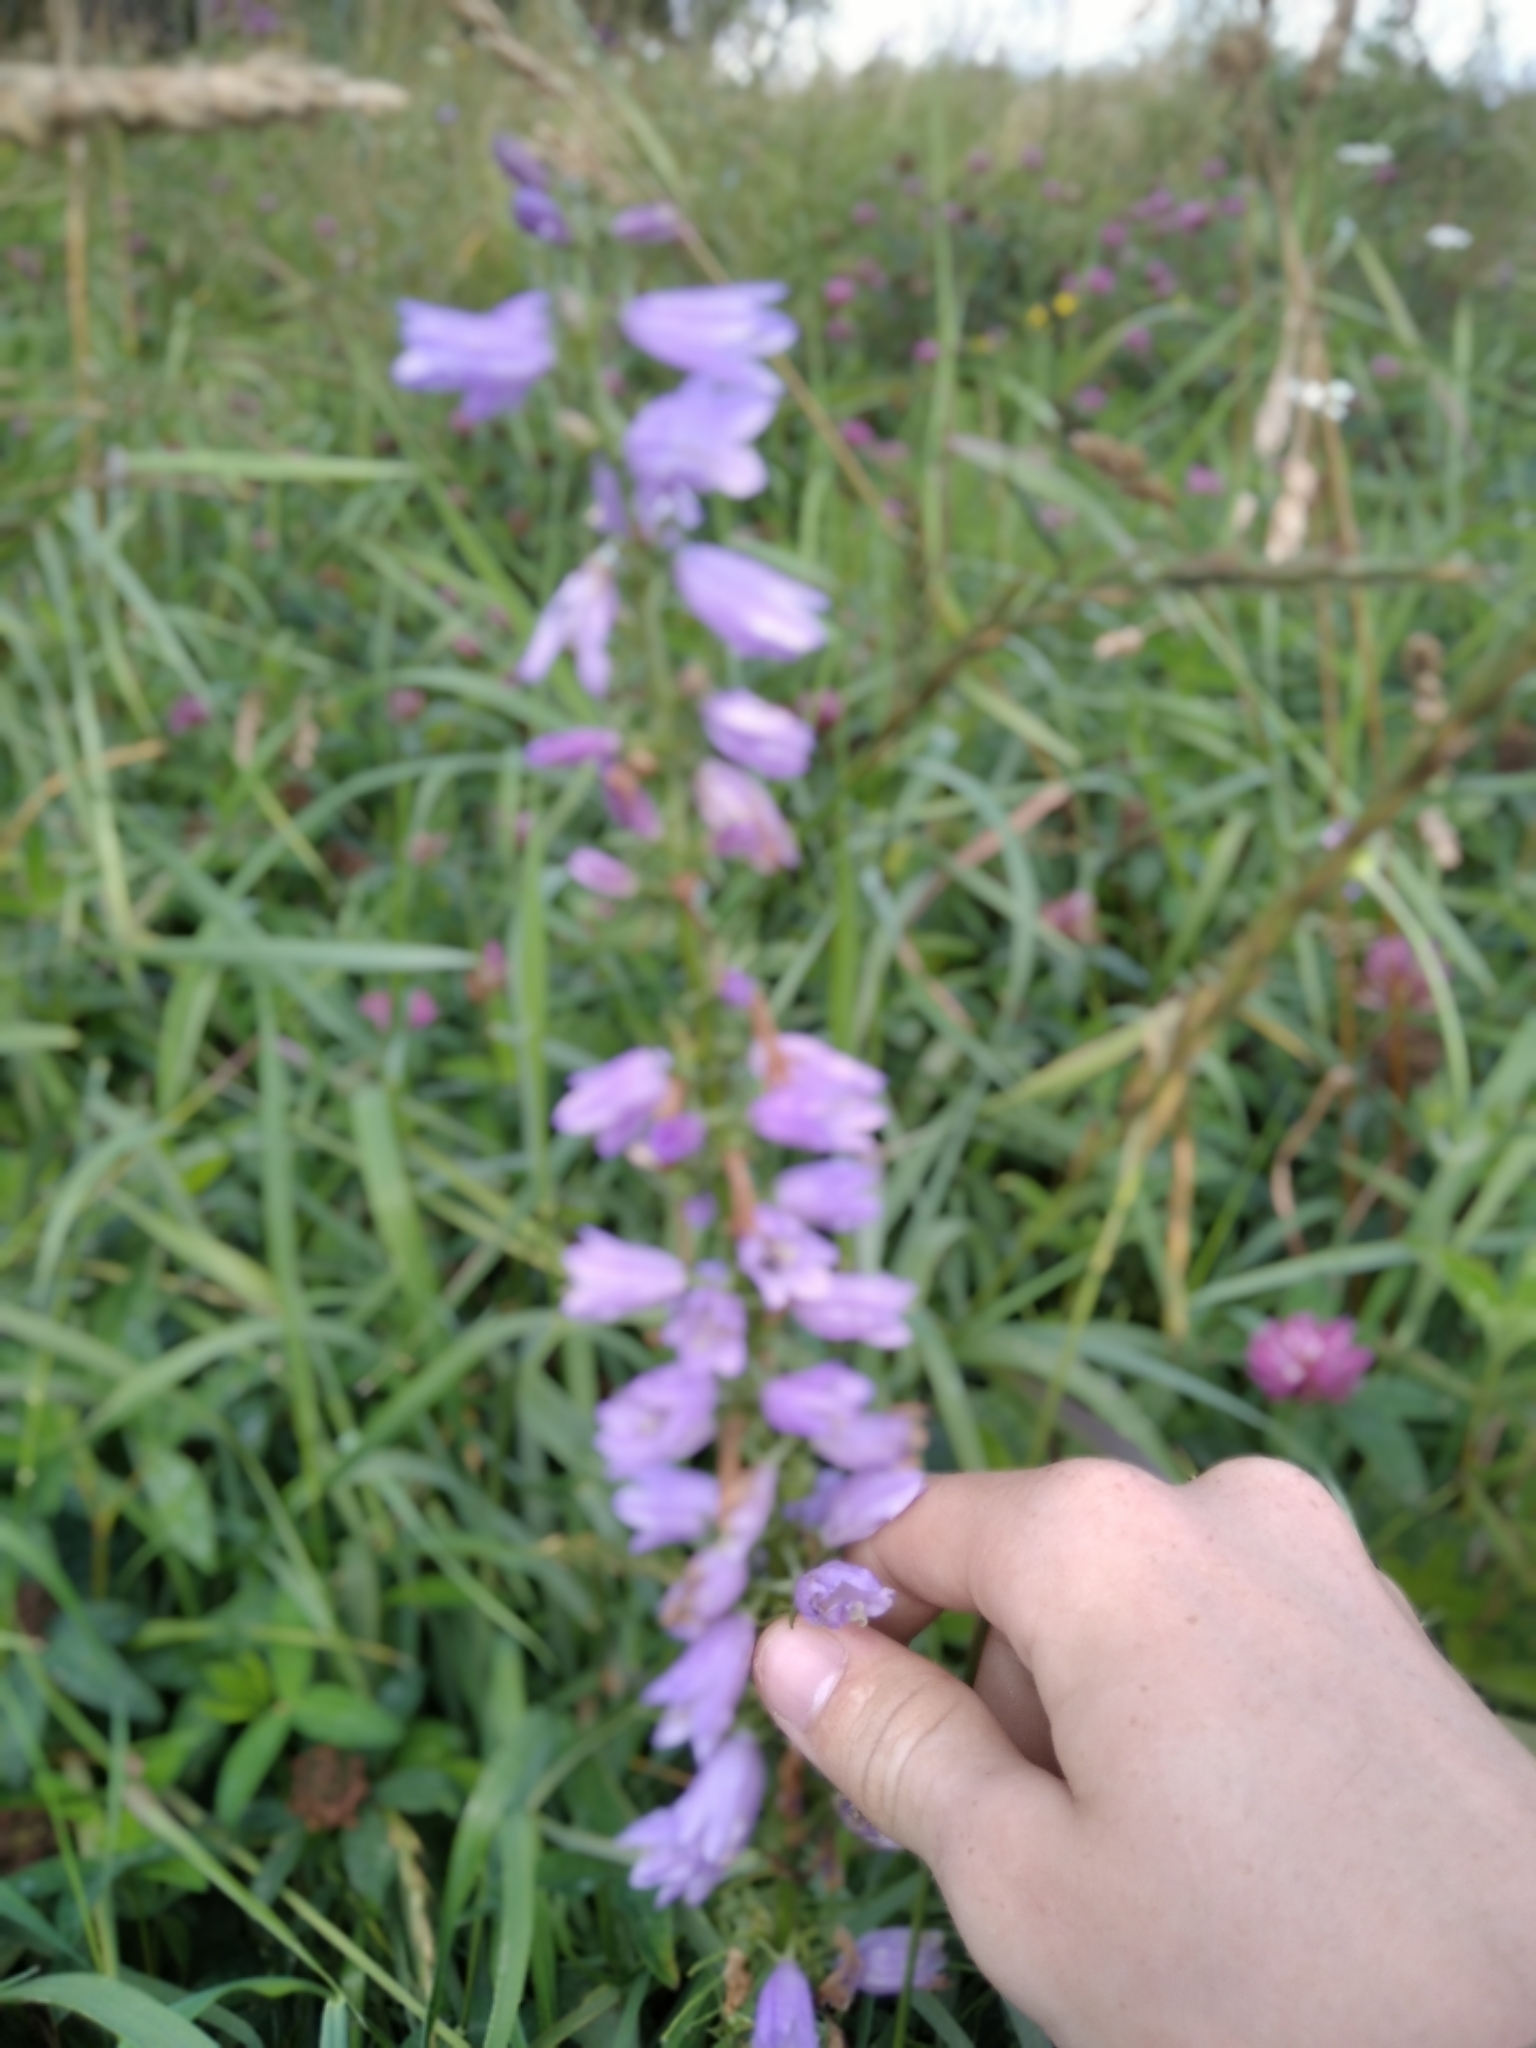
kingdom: Plantae
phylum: Tracheophyta
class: Magnoliopsida
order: Asterales
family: Campanulaceae
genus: Campanula
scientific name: Campanula bononiensis
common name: Pale bellflower
